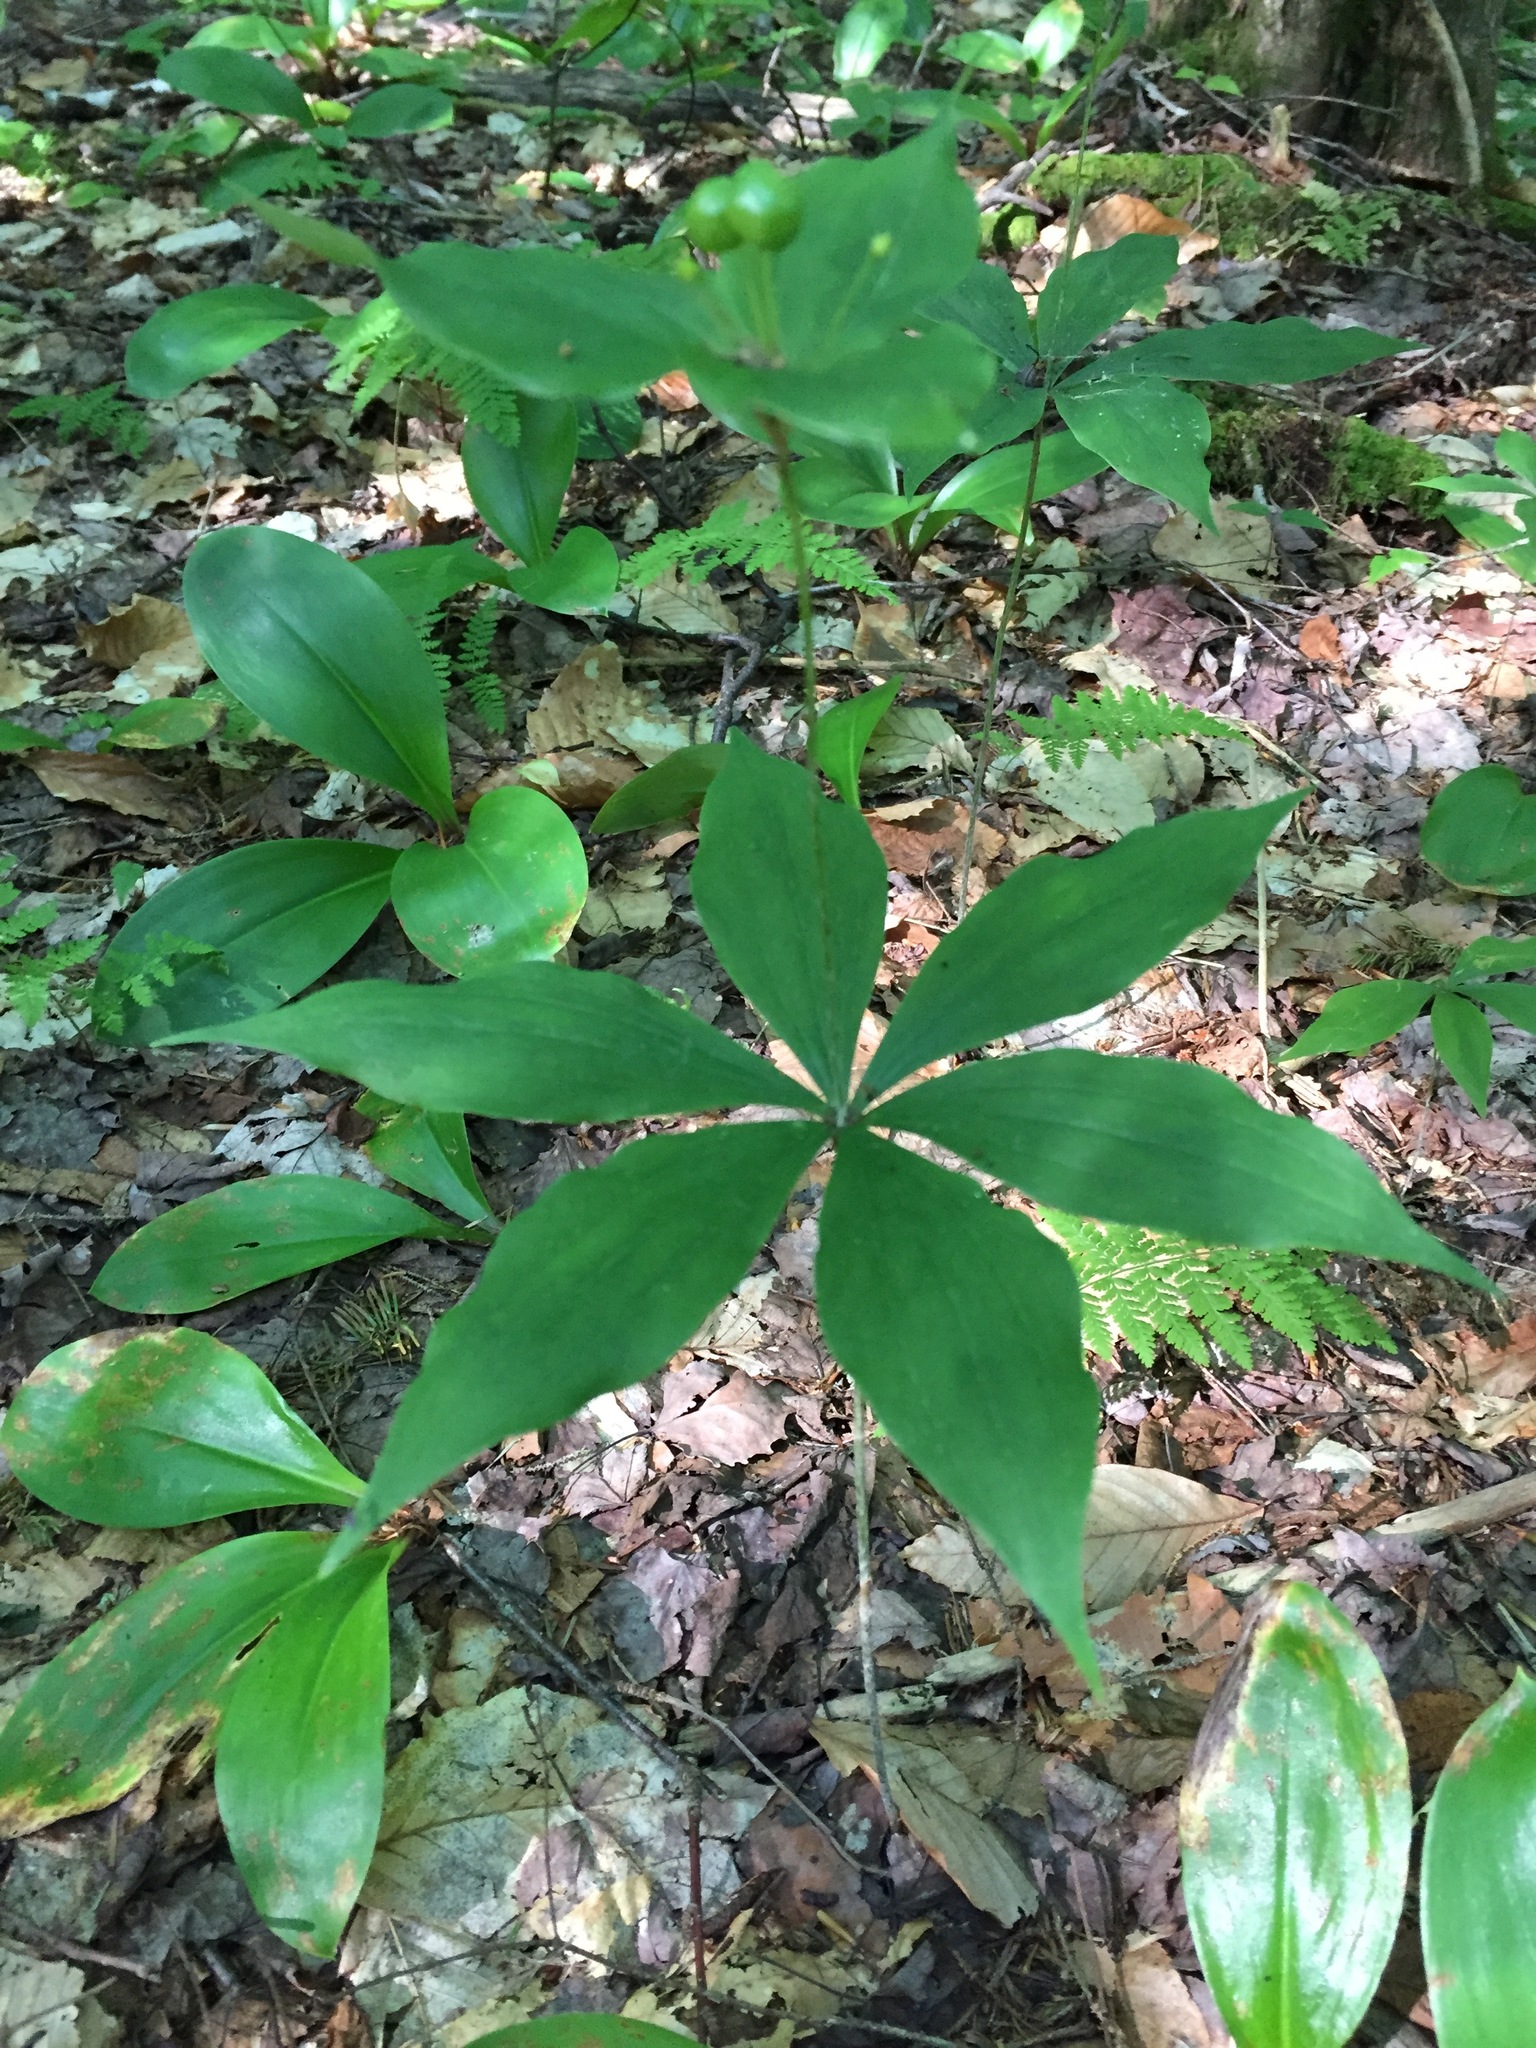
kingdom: Plantae
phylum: Tracheophyta
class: Liliopsida
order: Liliales
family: Liliaceae
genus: Medeola
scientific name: Medeola virginiana
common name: Indian cucumber-root
